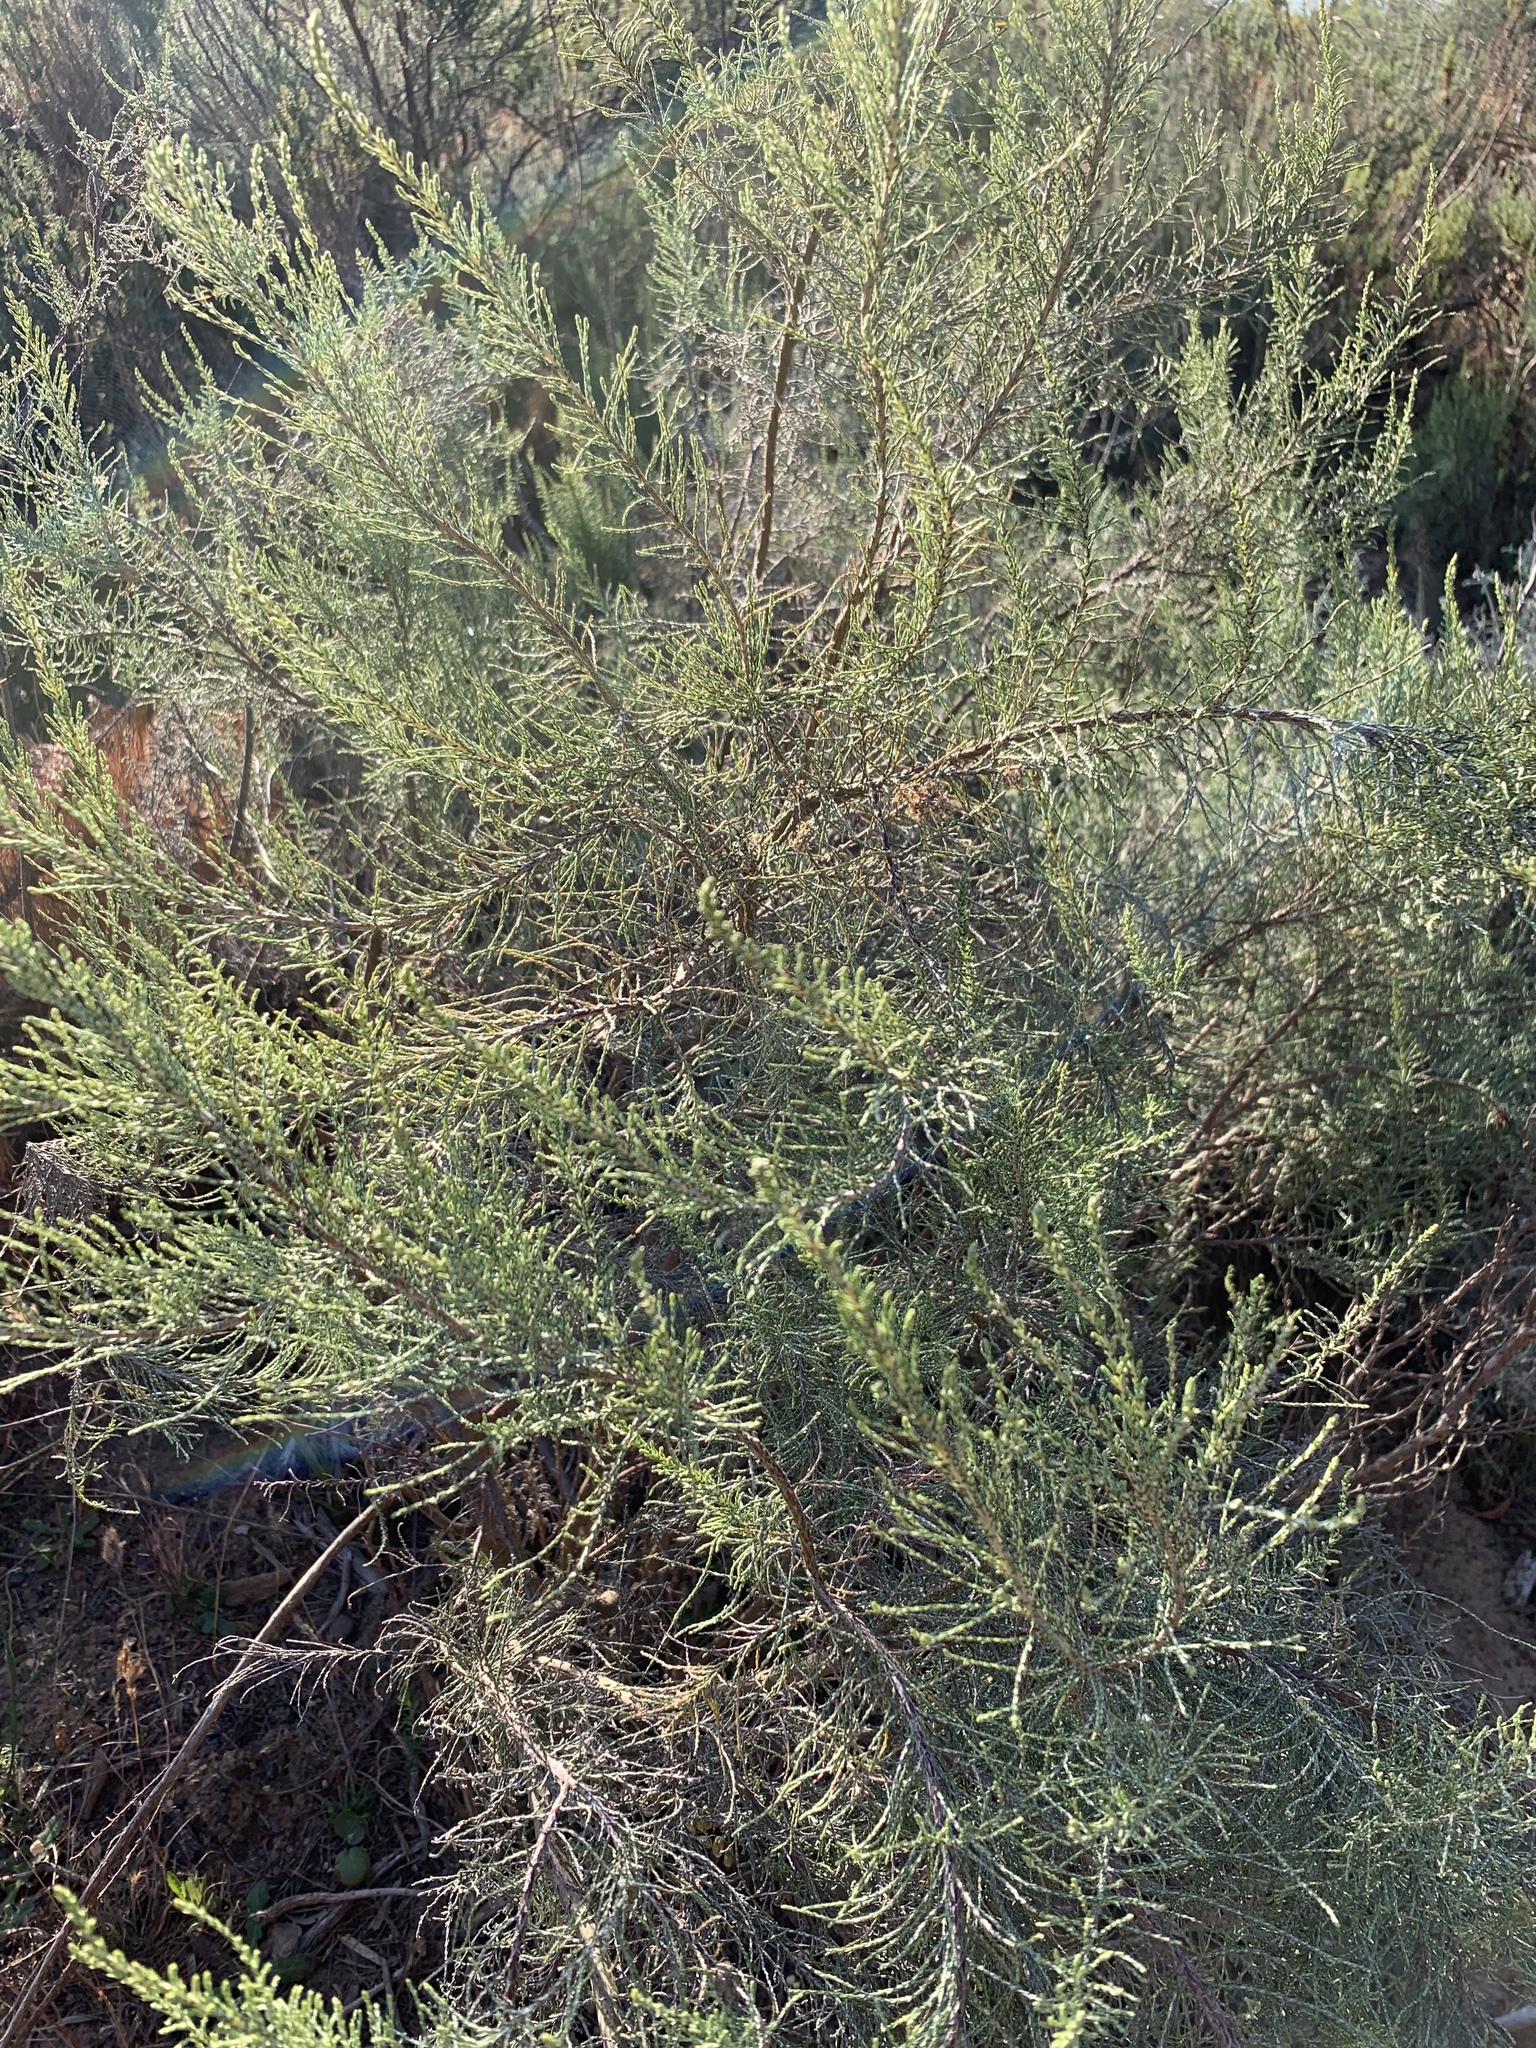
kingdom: Plantae
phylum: Tracheophyta
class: Magnoliopsida
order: Asterales
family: Asteraceae
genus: Dicerothamnus
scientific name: Dicerothamnus rhinocerotis
